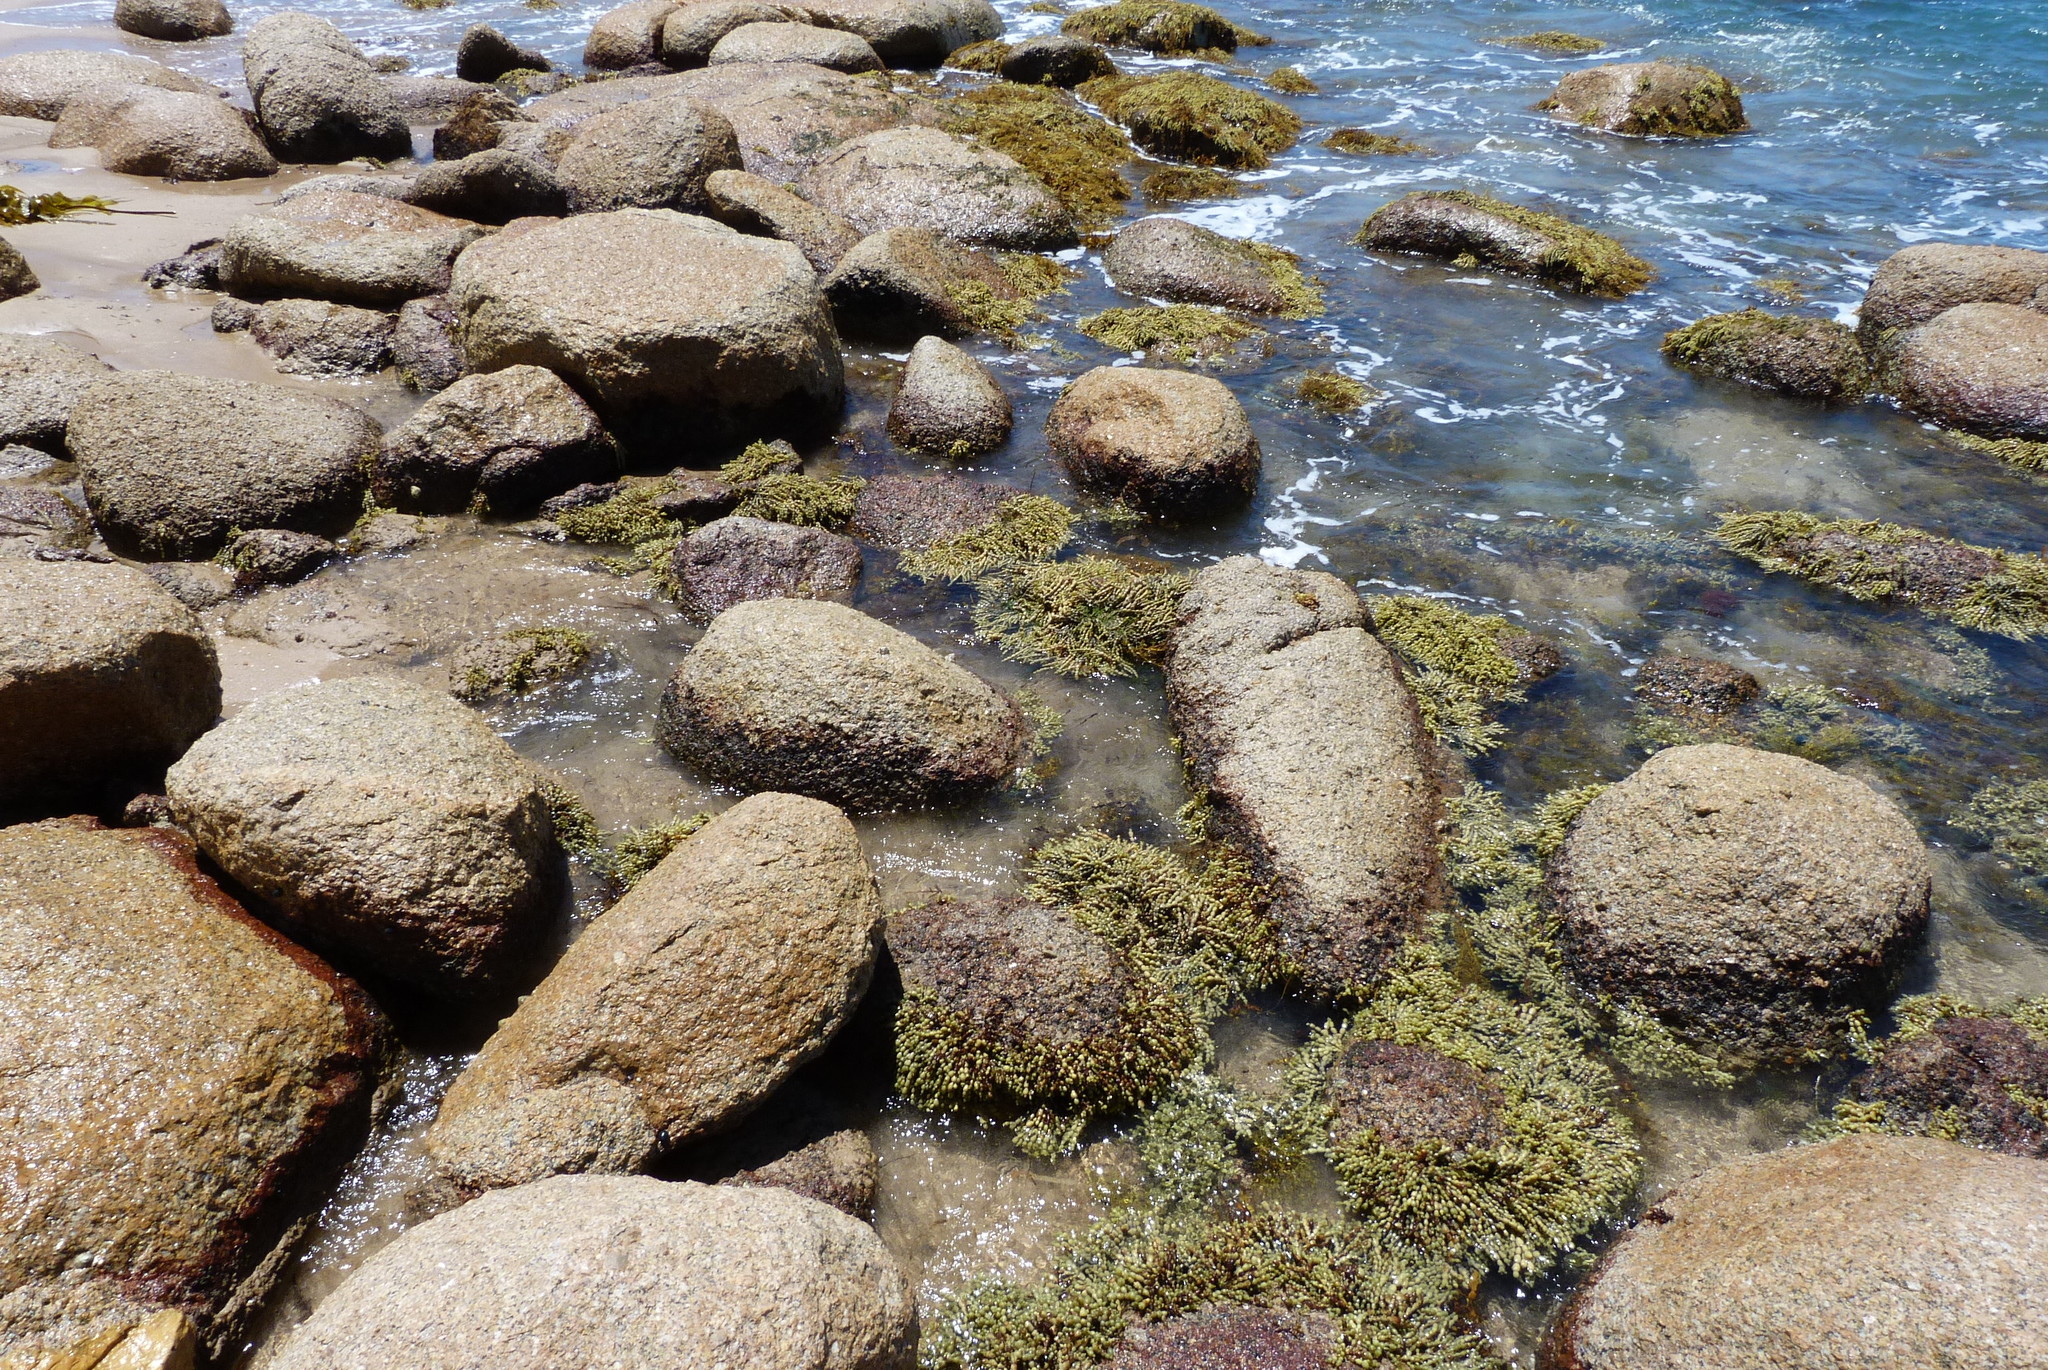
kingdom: Chromista
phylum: Ochrophyta
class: Phaeophyceae
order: Fucales
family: Hormosiraceae
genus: Hormosira
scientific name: Hormosira banksii
